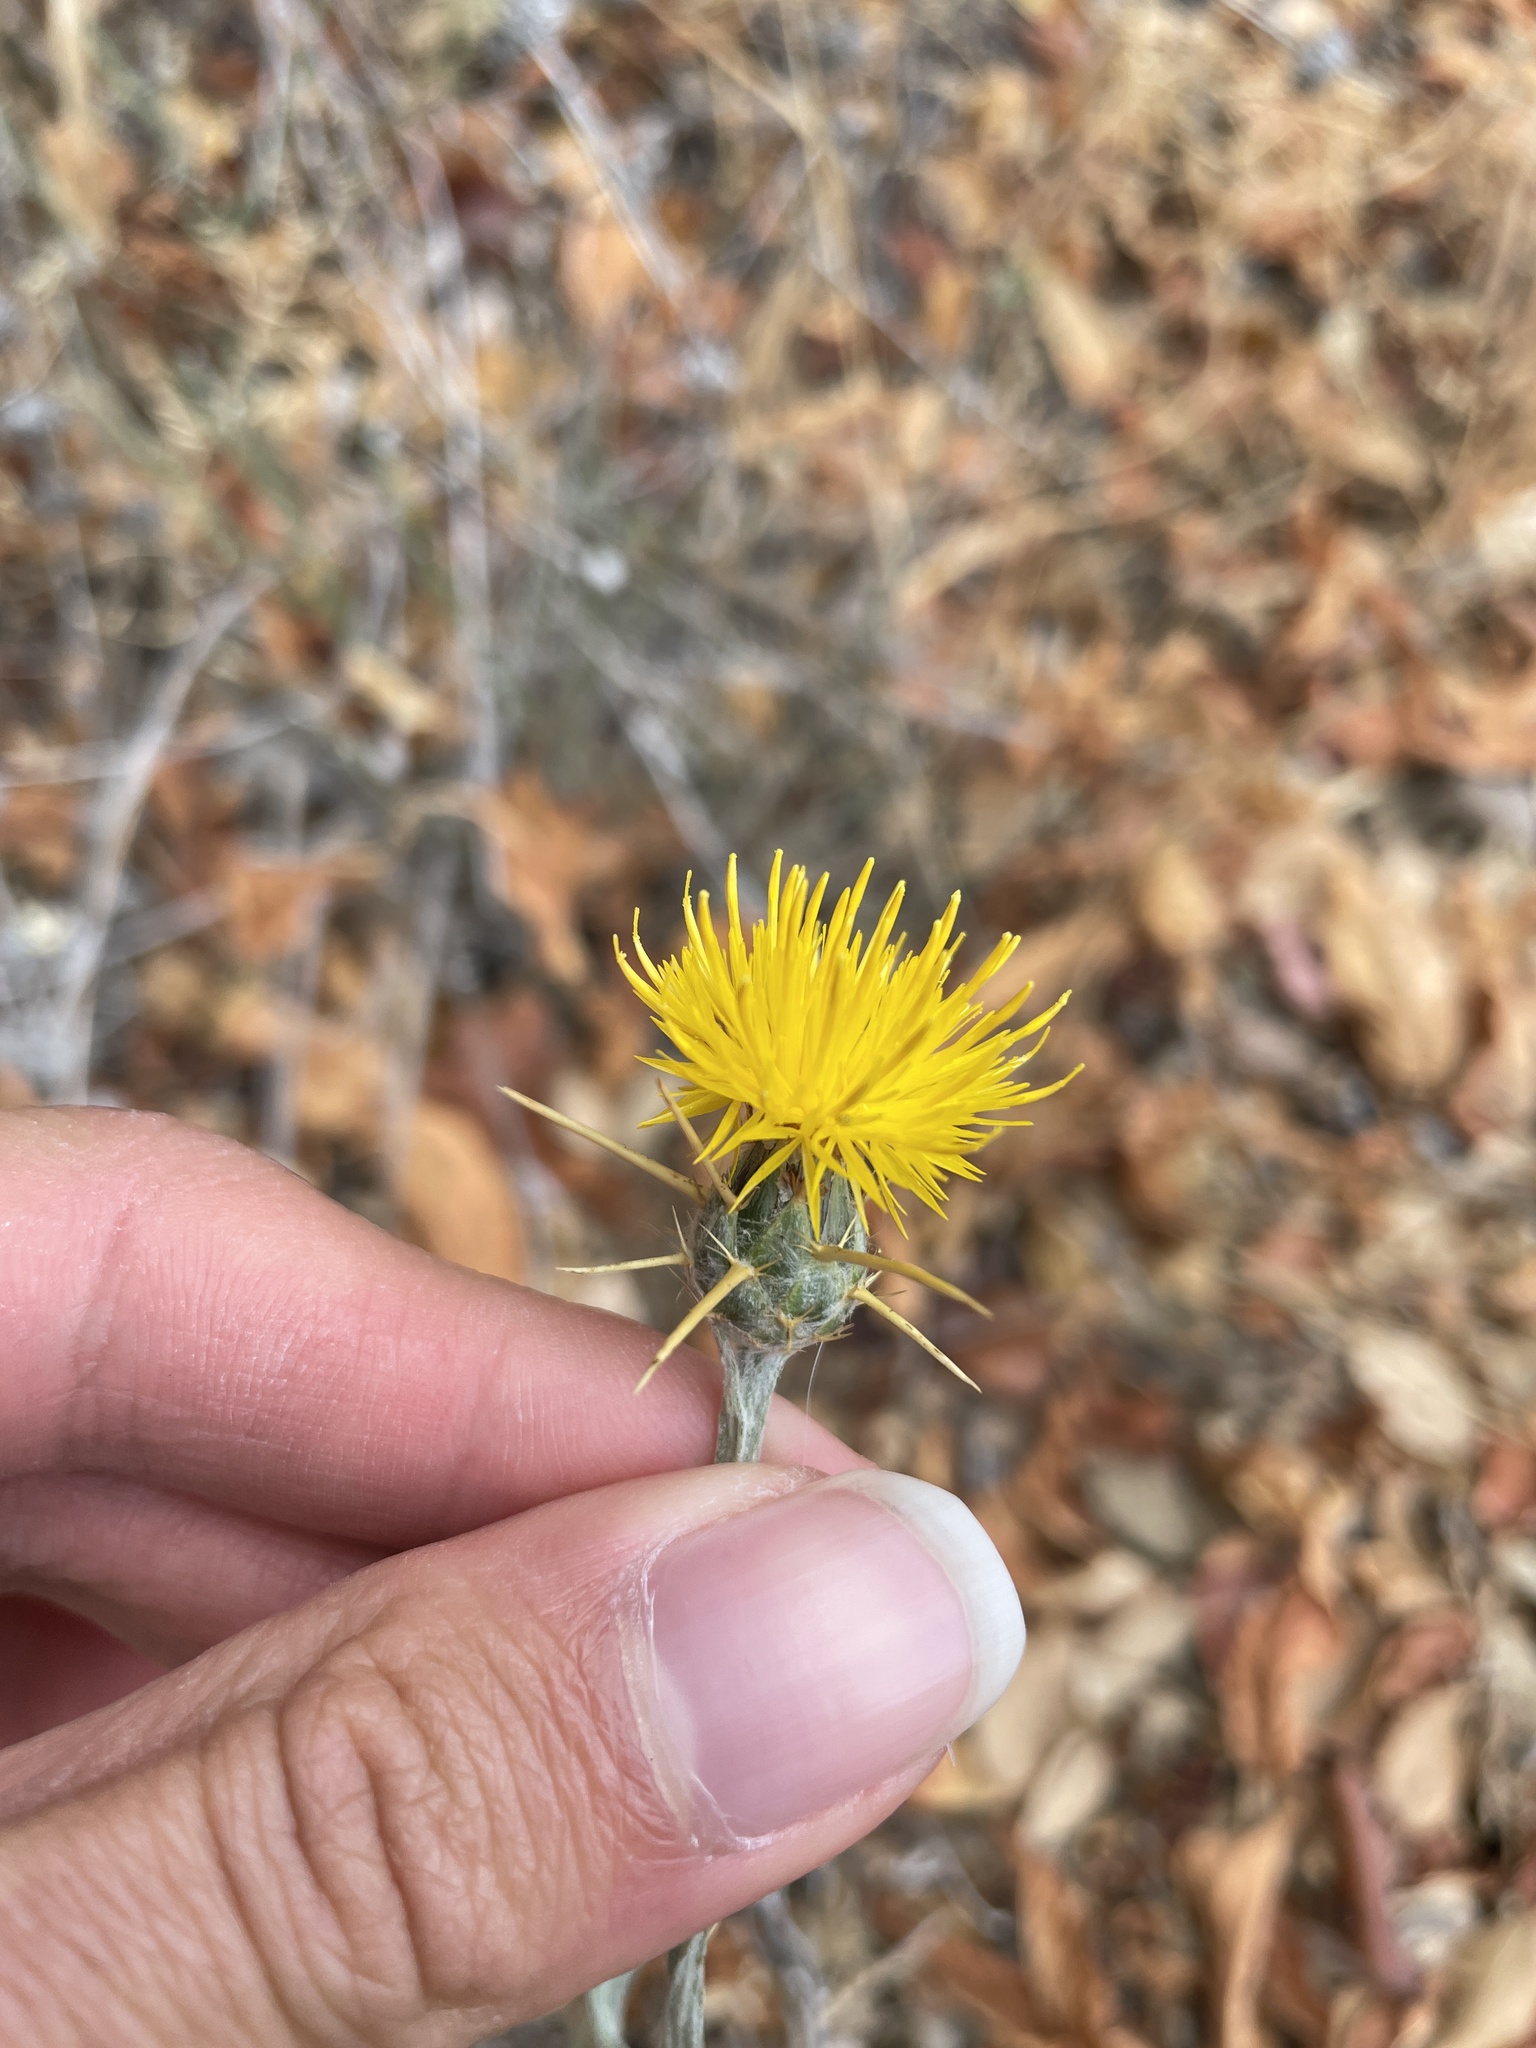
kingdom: Plantae
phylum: Tracheophyta
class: Magnoliopsida
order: Asterales
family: Asteraceae
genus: Centaurea
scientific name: Centaurea solstitialis
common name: Yellow star-thistle
